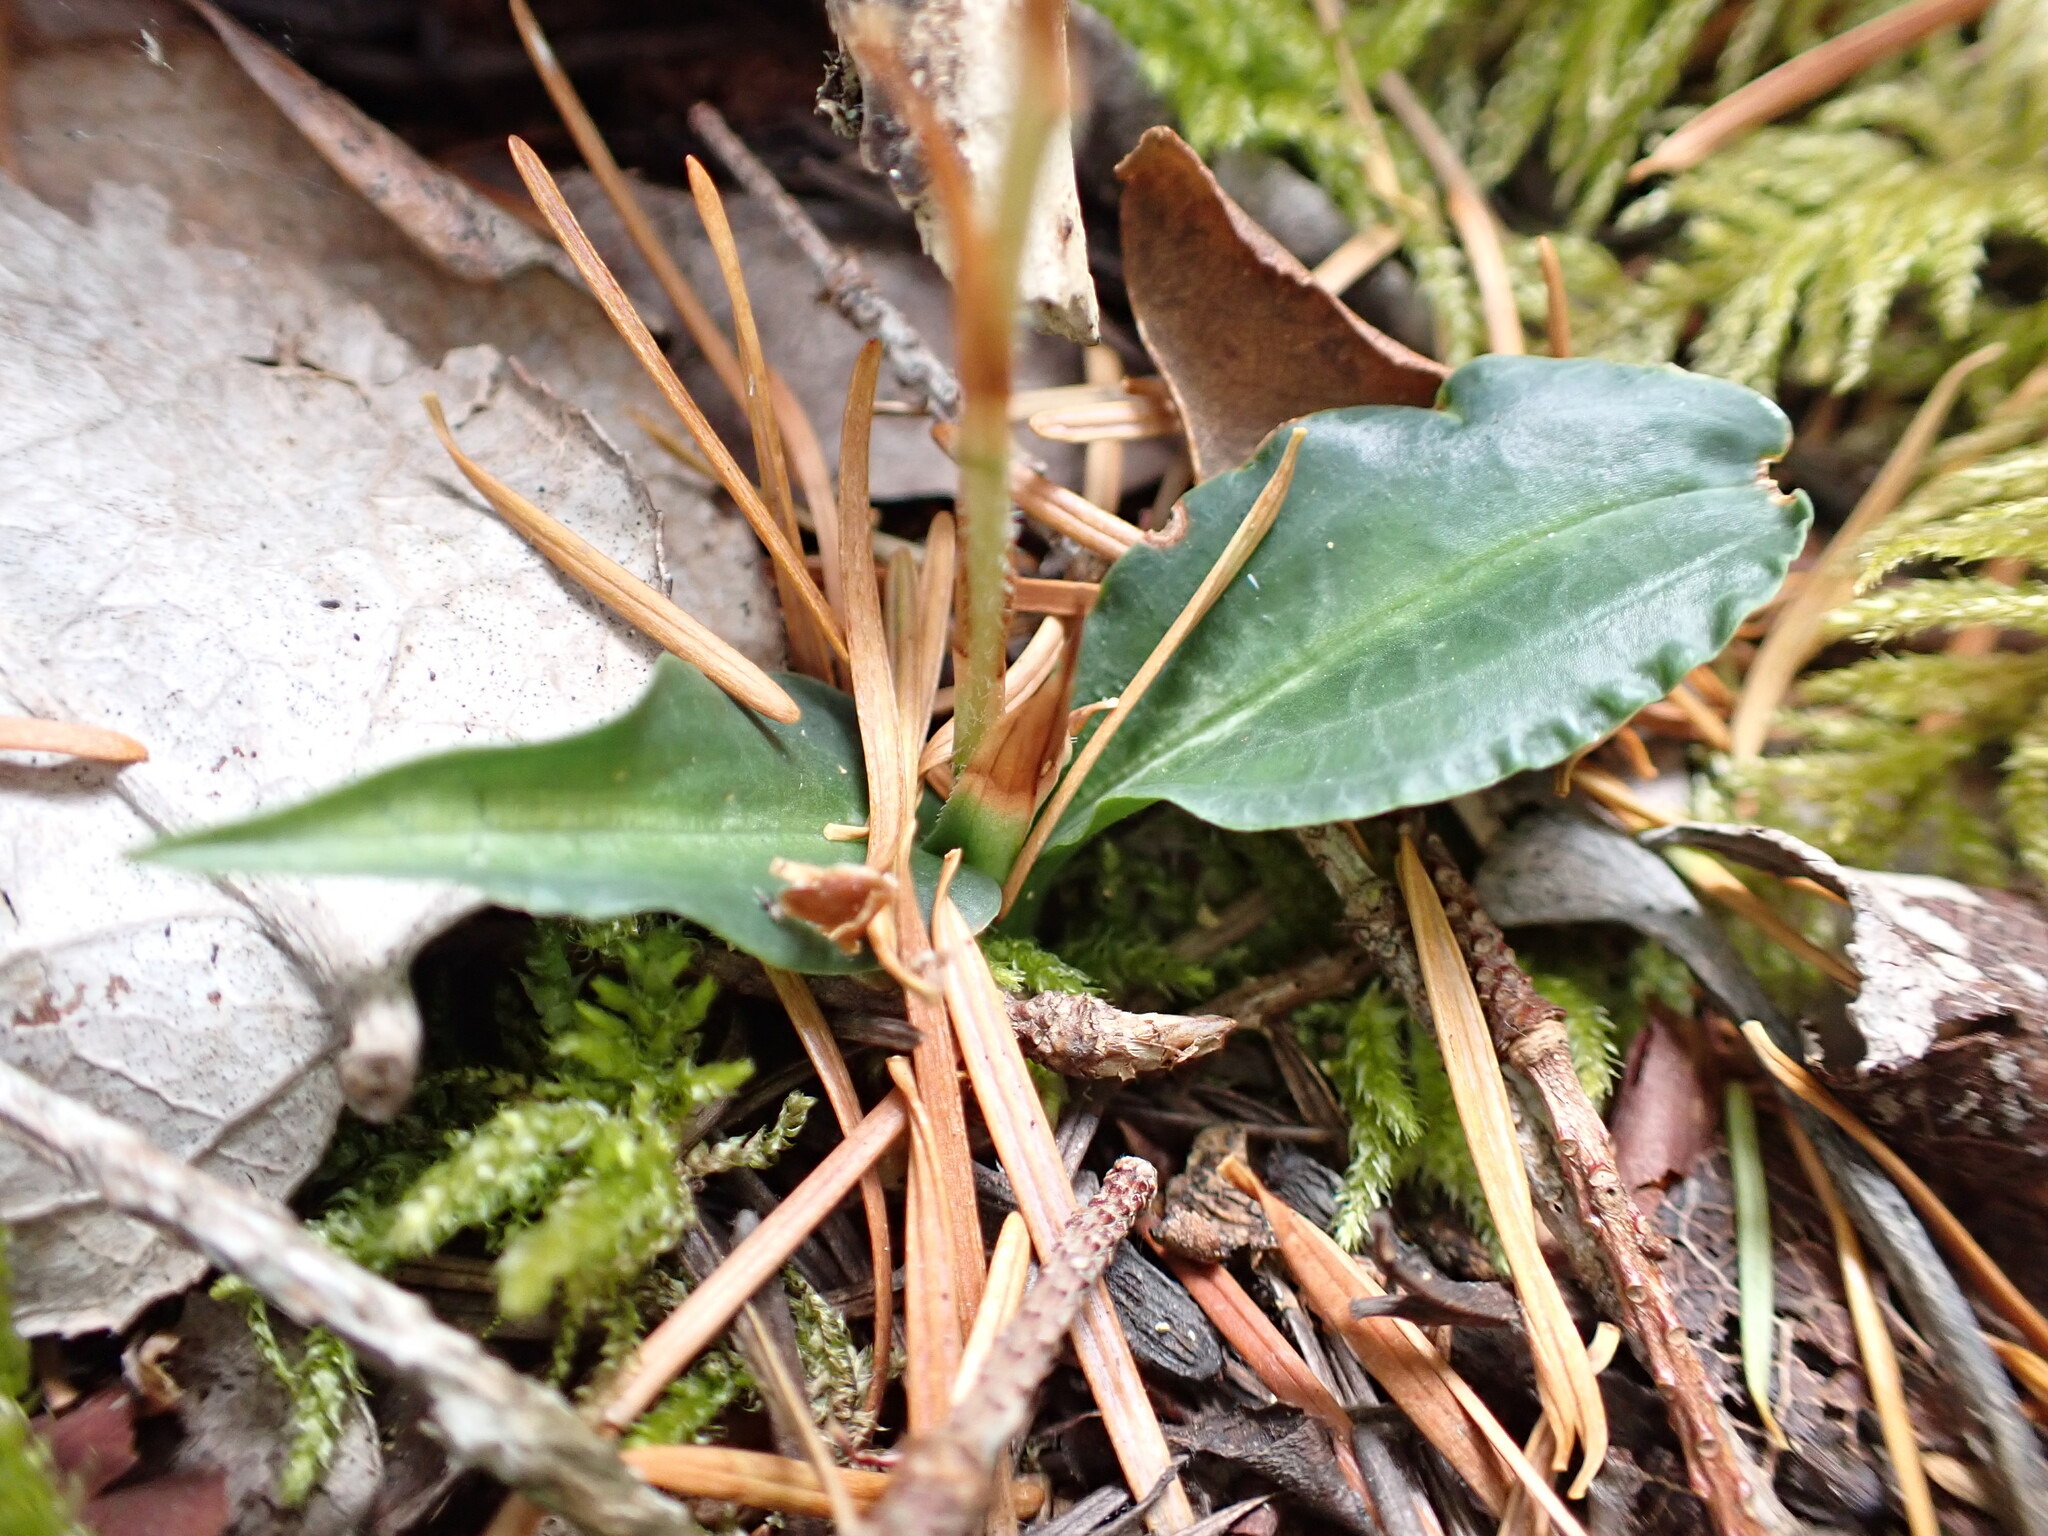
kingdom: Plantae
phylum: Tracheophyta
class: Liliopsida
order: Asparagales
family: Orchidaceae
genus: Goodyera
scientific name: Goodyera oblongifolia
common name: Giant rattlesnake-plantain
